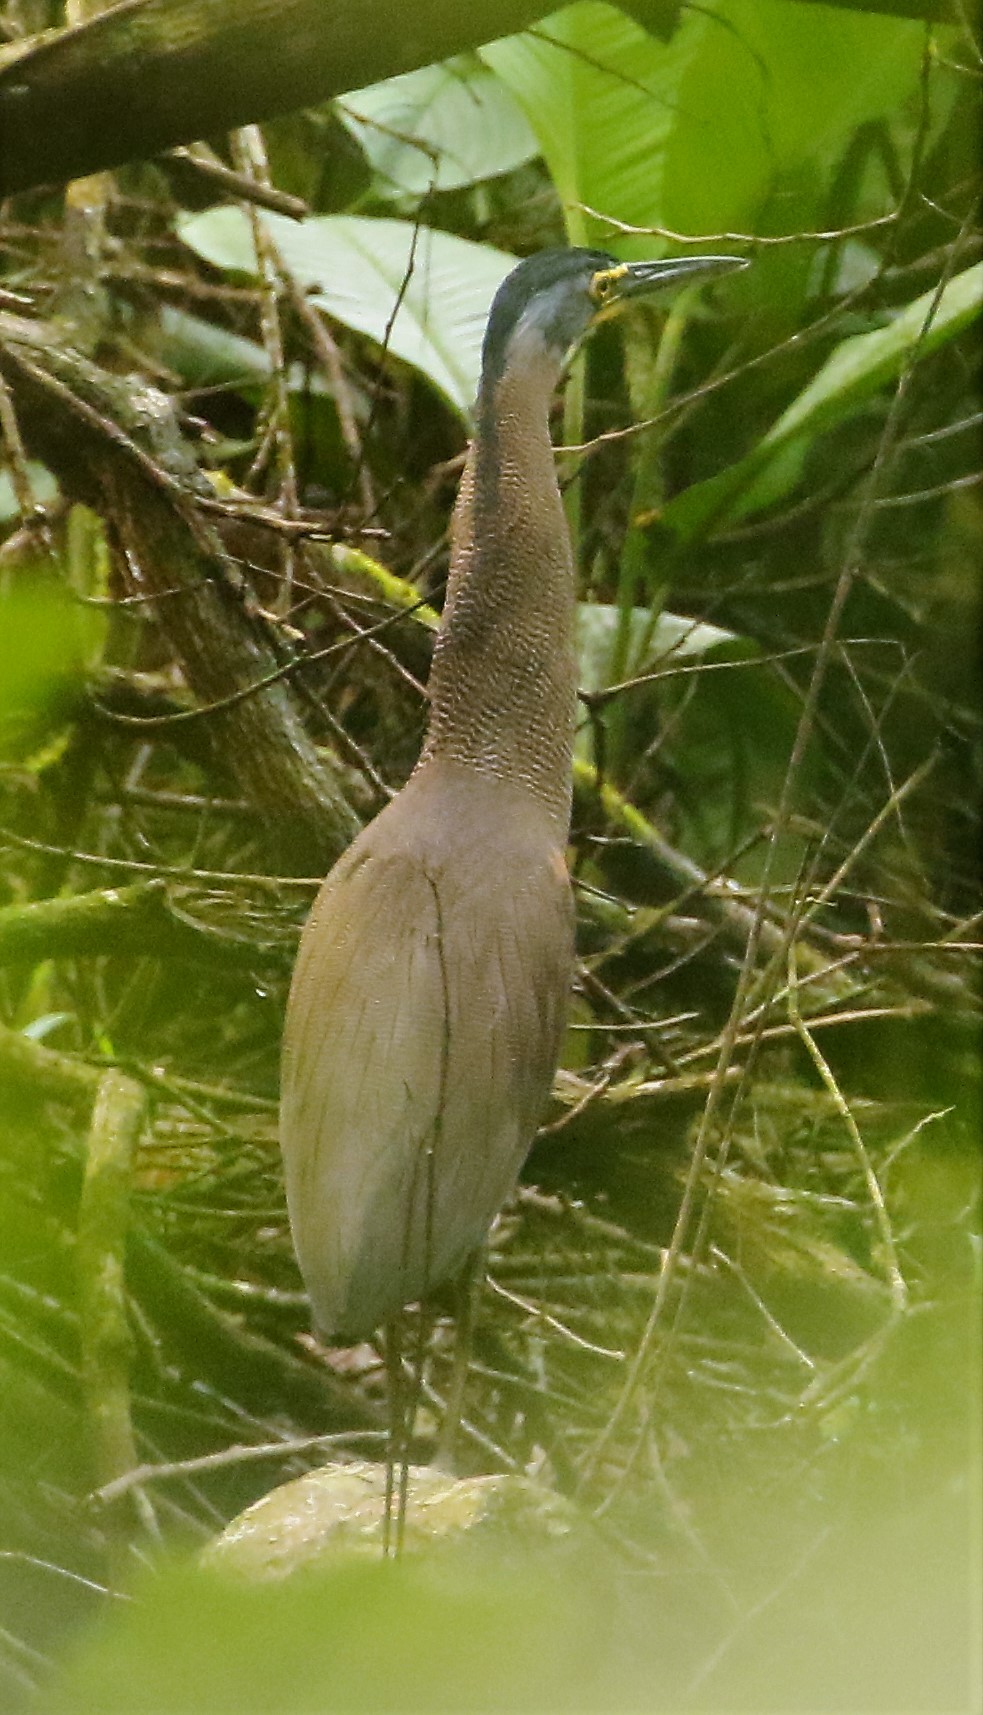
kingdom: Animalia
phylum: Chordata
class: Aves
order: Pelecaniformes
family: Ardeidae
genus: Tigrisoma
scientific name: Tigrisoma mexicanum
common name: Bare-throated tiger-heron
